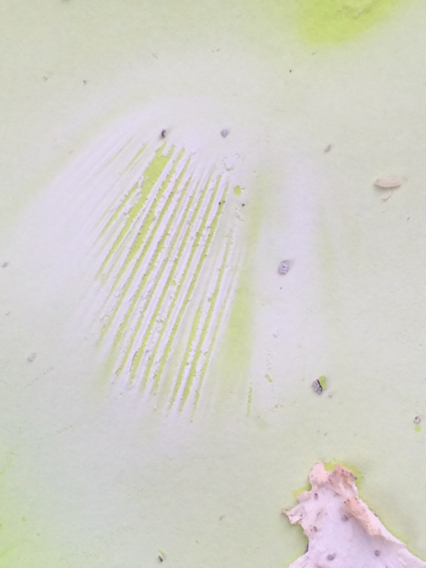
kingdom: Fungi
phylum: Basidiomycota
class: Agaricomycetes
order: Agaricales
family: Amanitaceae
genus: Amanita
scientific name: Amanita canescens
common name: Golden threads lepidella
